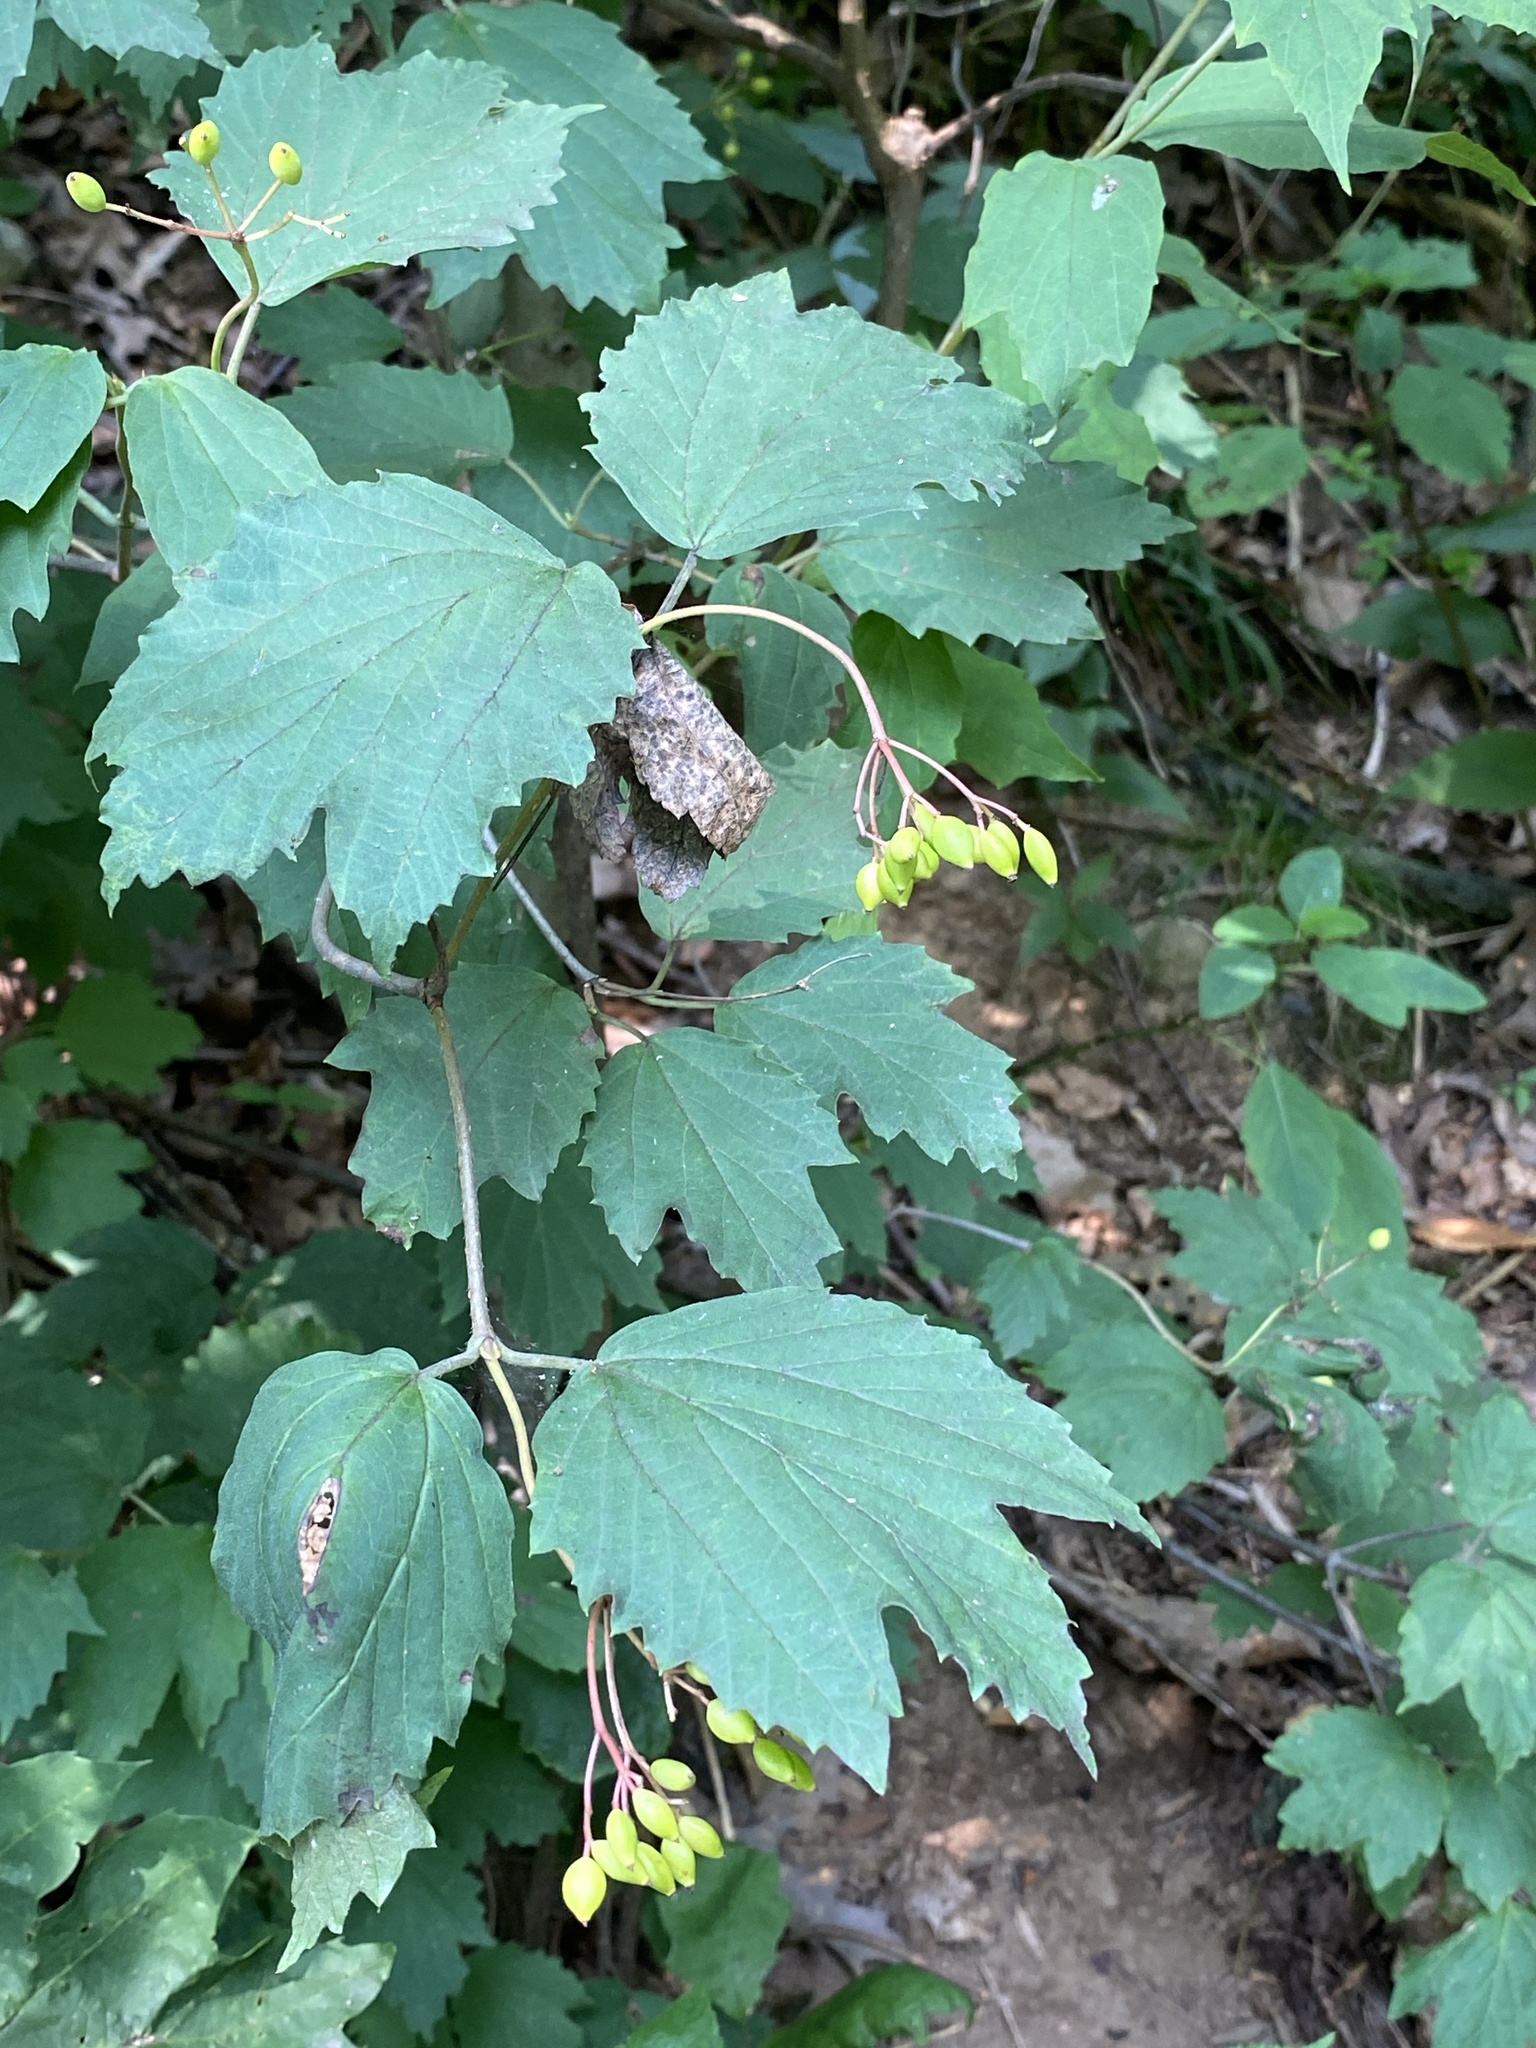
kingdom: Plantae
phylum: Tracheophyta
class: Magnoliopsida
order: Dipsacales
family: Viburnaceae
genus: Viburnum
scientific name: Viburnum acerifolium
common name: Dockmackie
